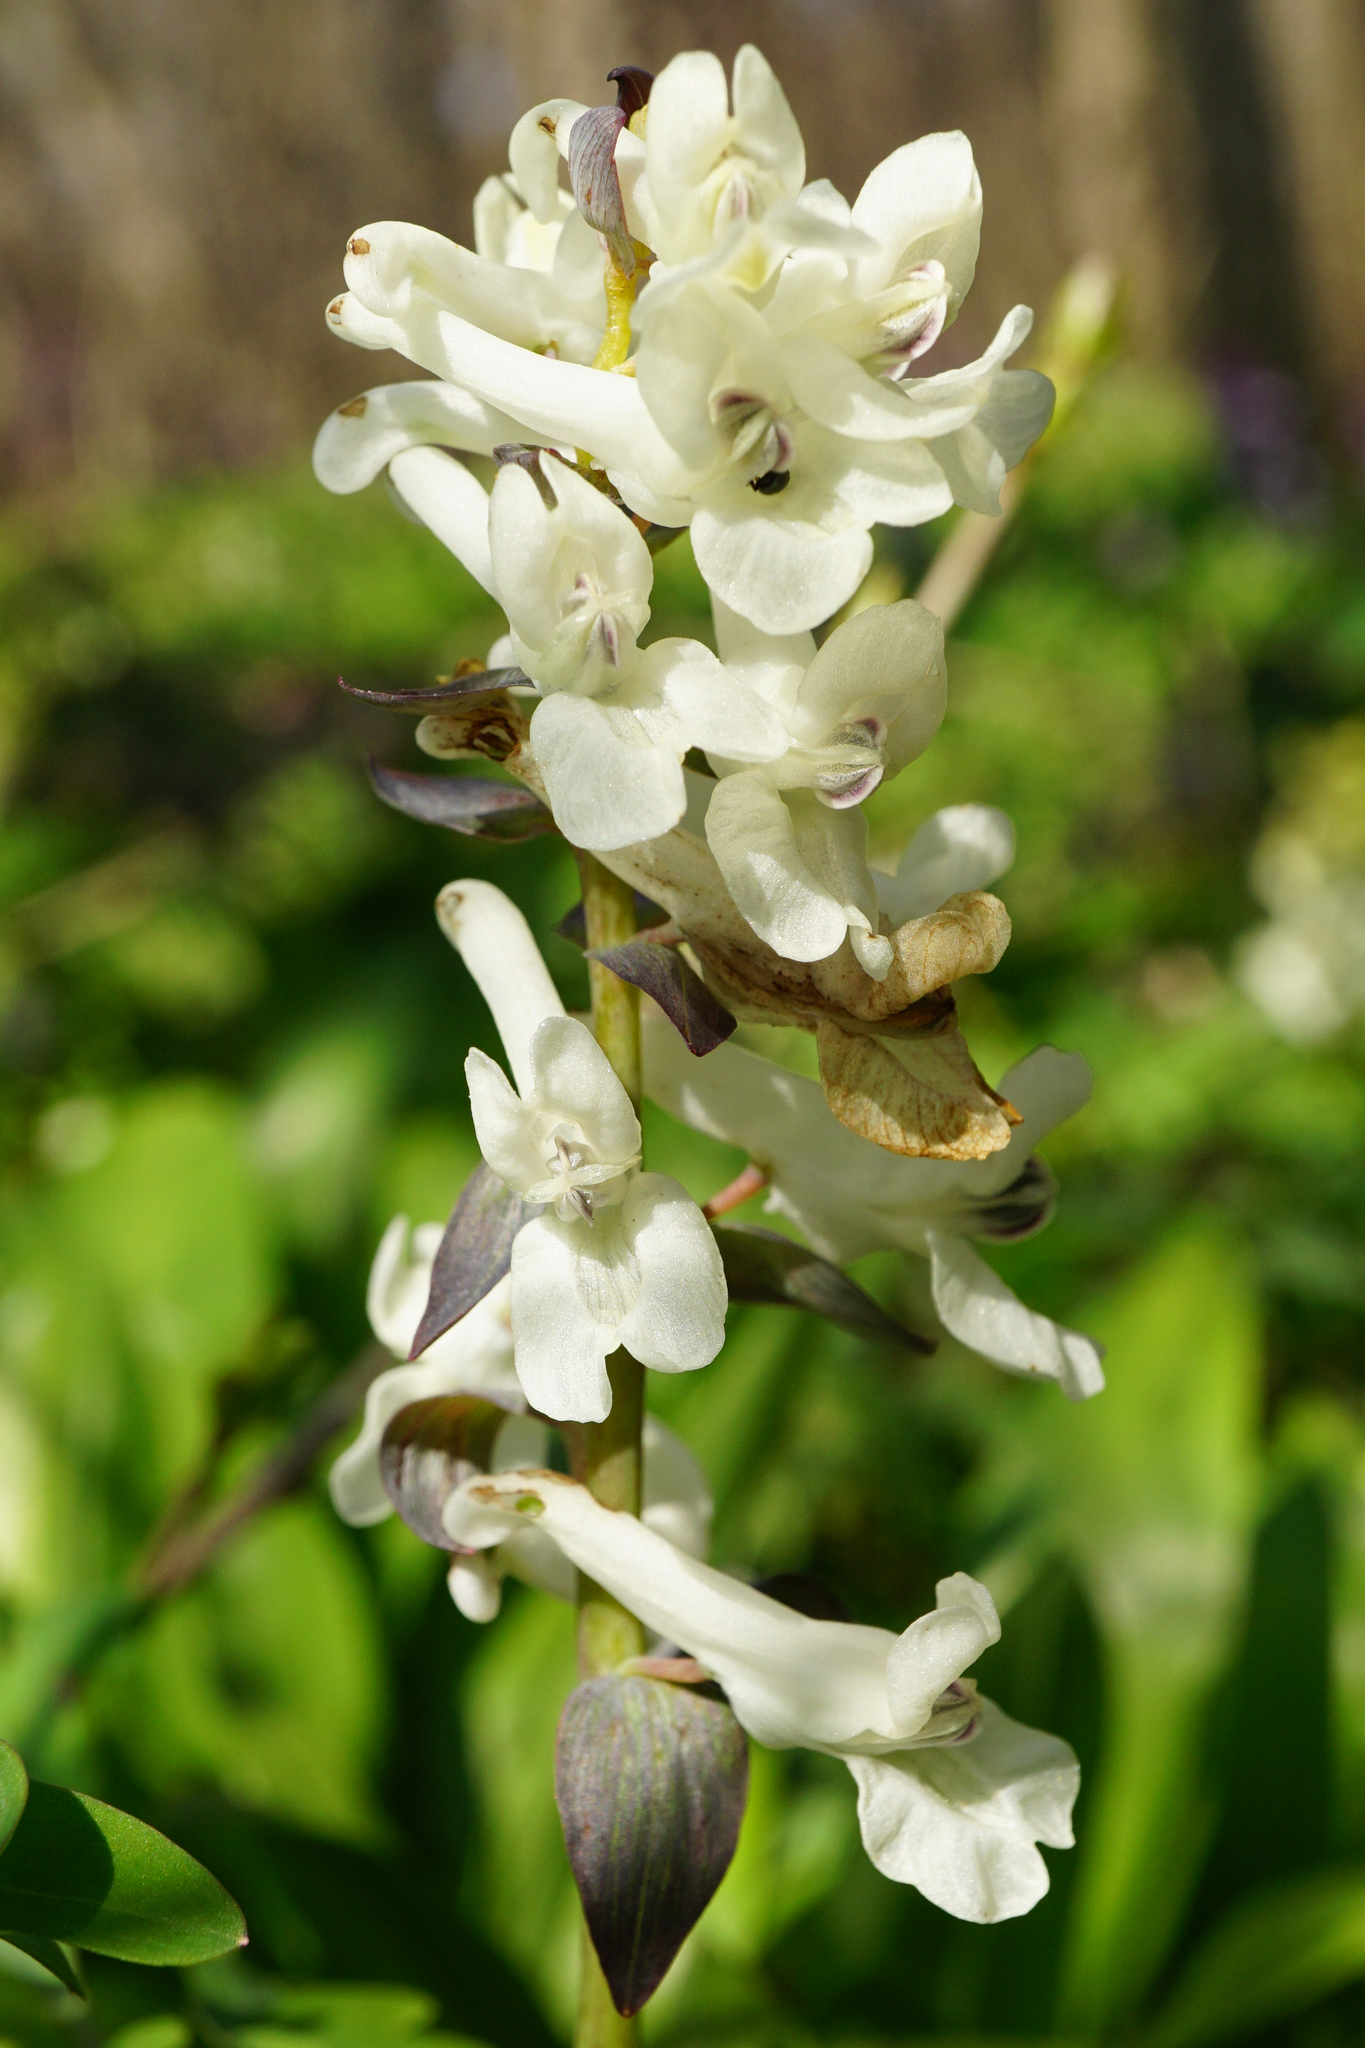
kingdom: Plantae
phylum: Tracheophyta
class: Magnoliopsida
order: Ranunculales
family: Papaveraceae
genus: Corydalis
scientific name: Corydalis cava
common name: Hollowroot
